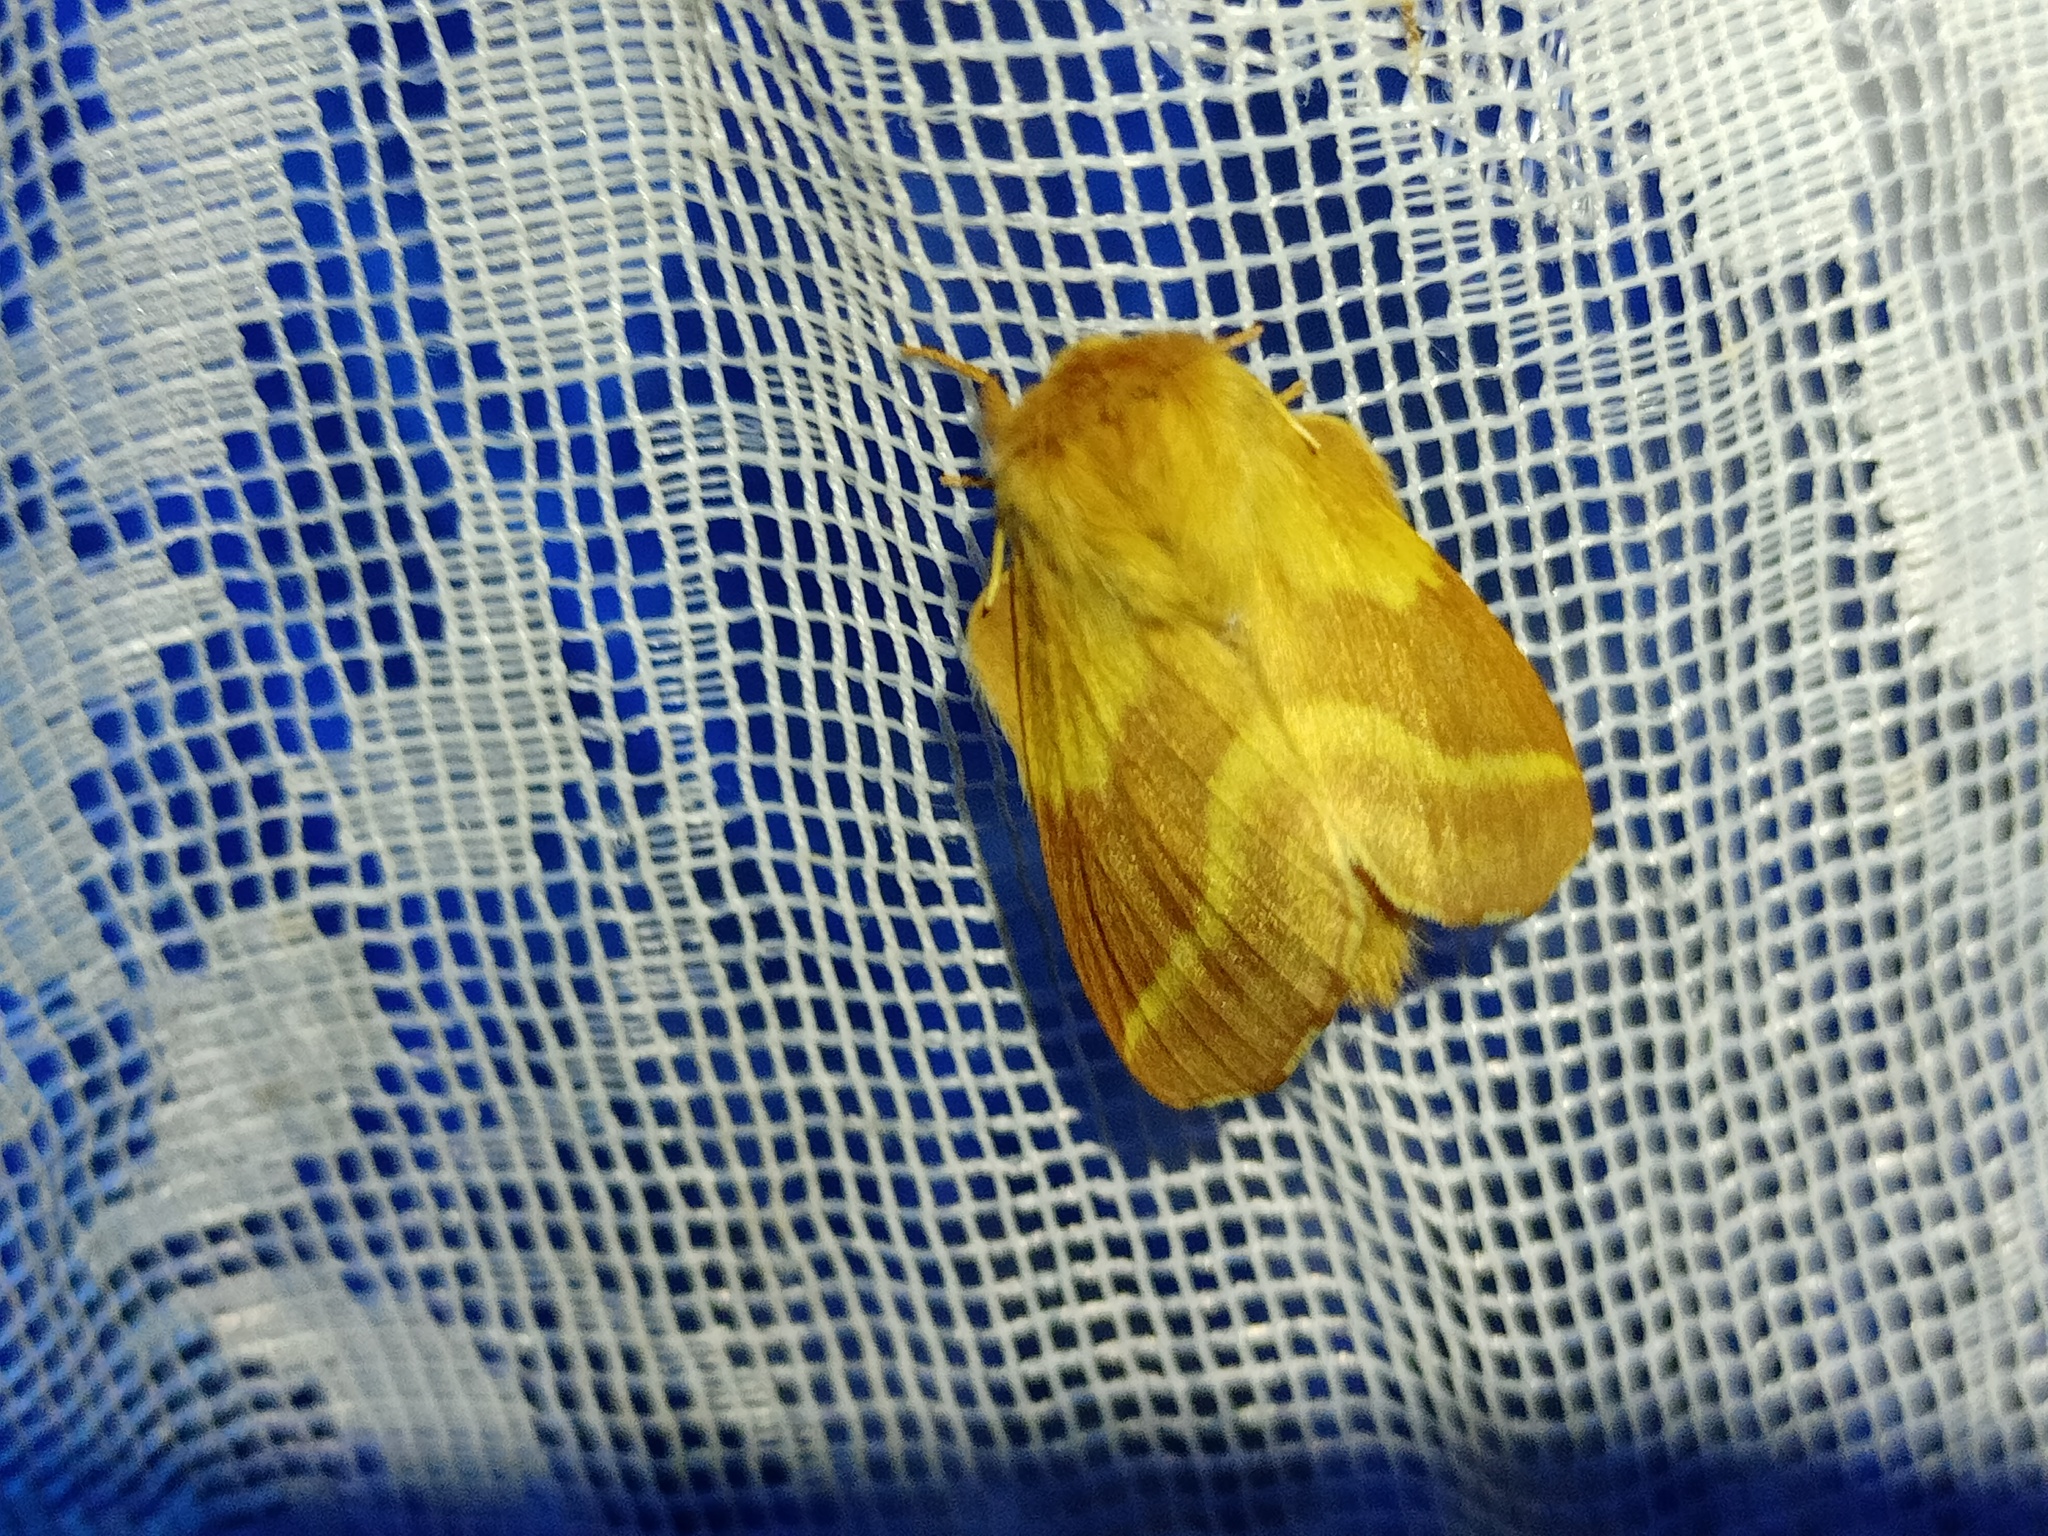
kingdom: Animalia
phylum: Arthropoda
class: Insecta
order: Lepidoptera
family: Lasiocampidae
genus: Malacosoma
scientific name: Malacosoma castrense
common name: Ground lackey
